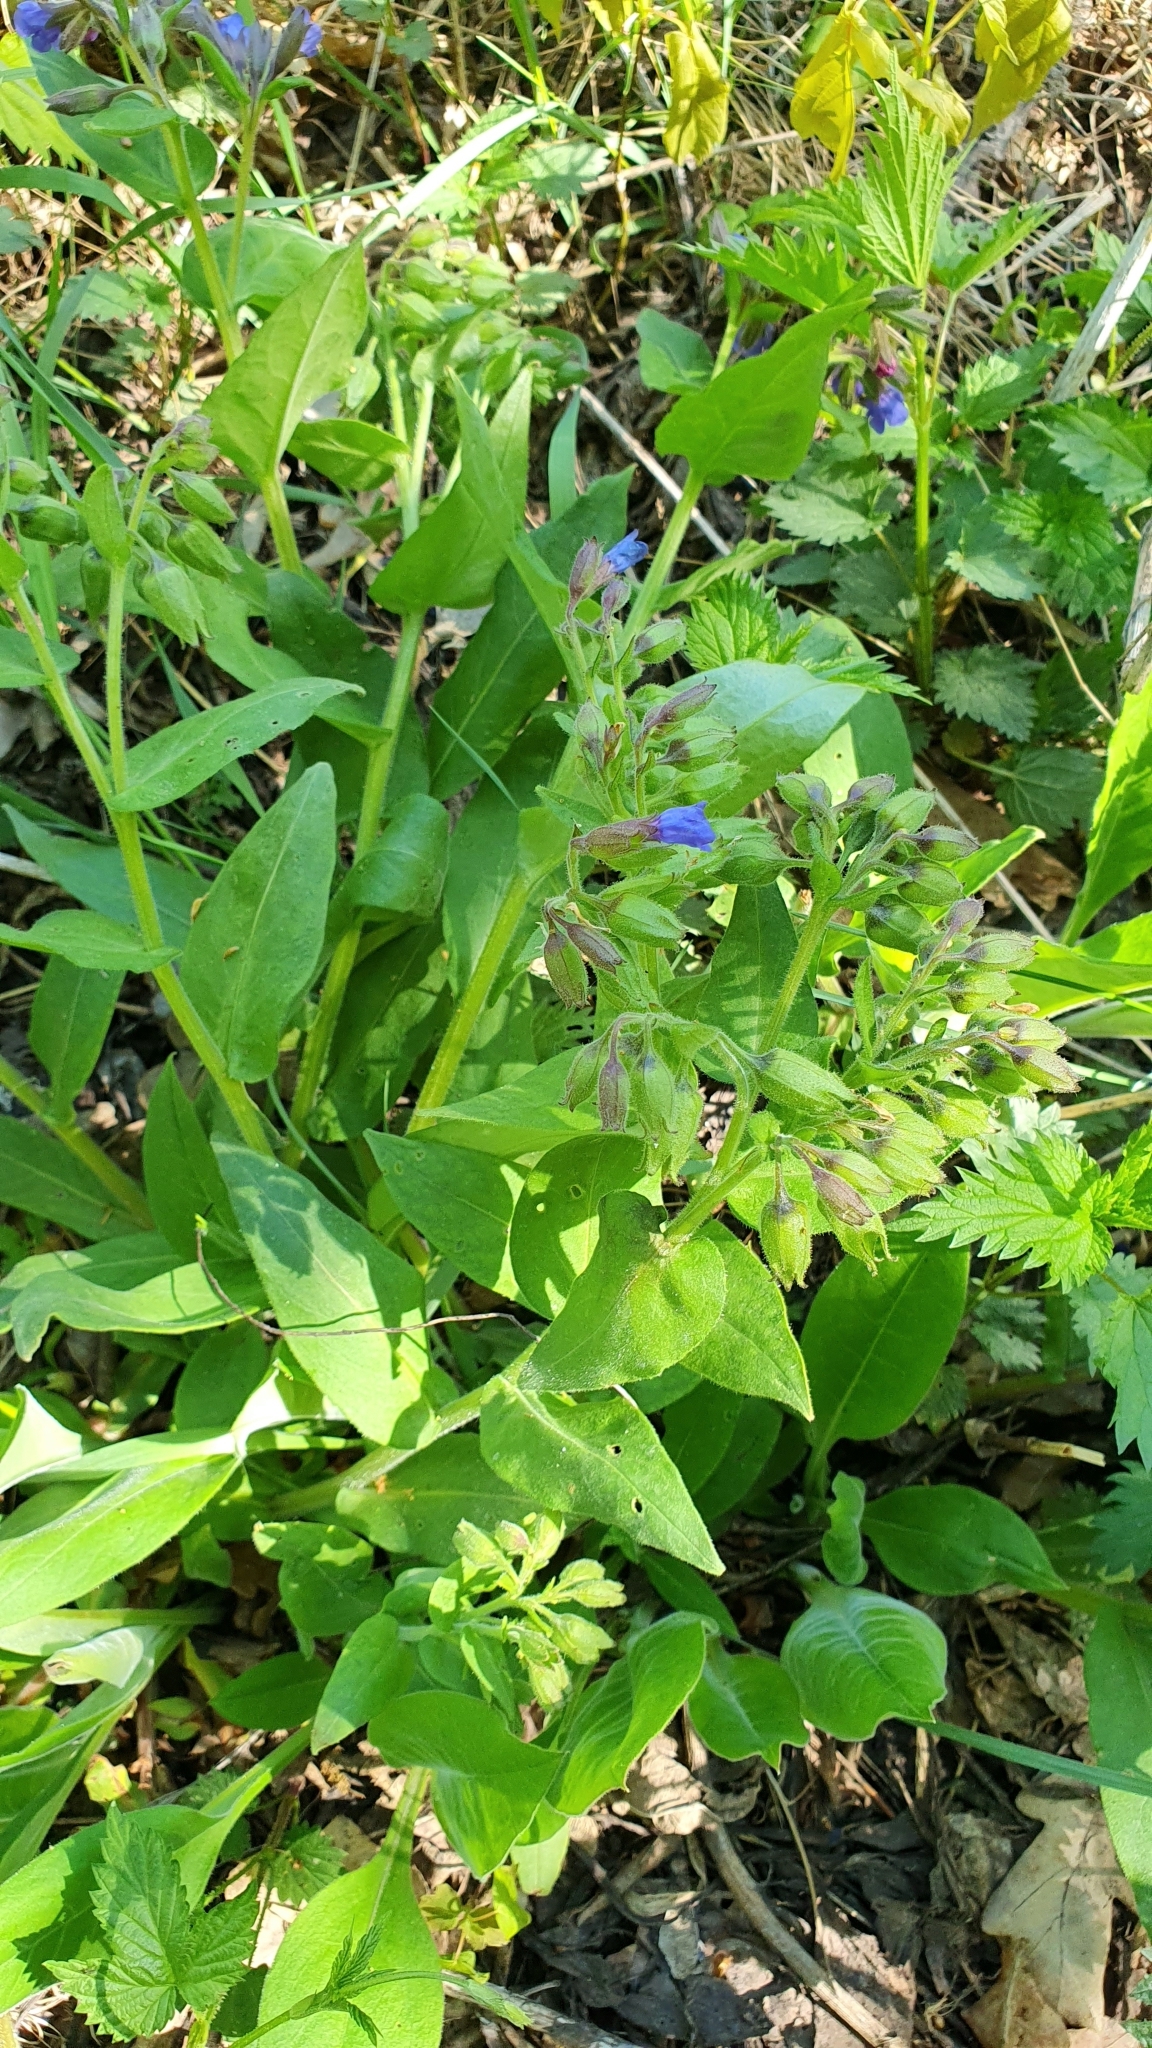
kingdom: Plantae
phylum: Tracheophyta
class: Magnoliopsida
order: Boraginales
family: Boraginaceae
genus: Pulmonaria
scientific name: Pulmonaria obscura
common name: Suffolk lungwort
